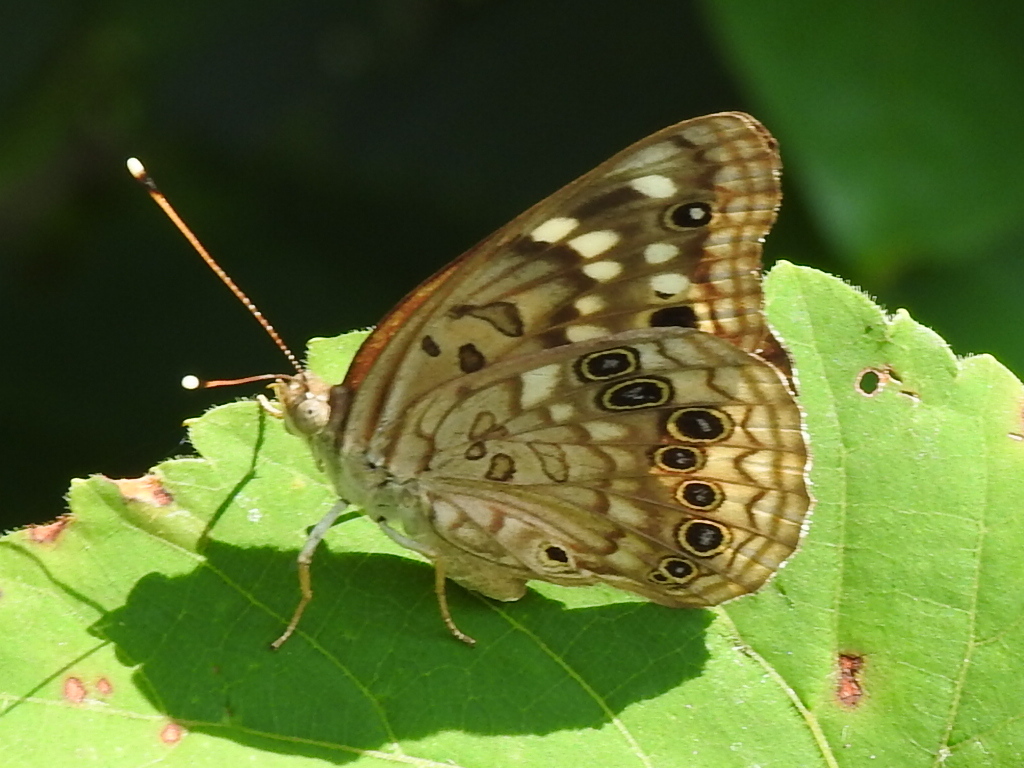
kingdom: Animalia
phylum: Arthropoda
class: Insecta
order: Lepidoptera
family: Nymphalidae
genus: Asterocampa
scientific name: Asterocampa celtis
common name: Hackberry emperor
